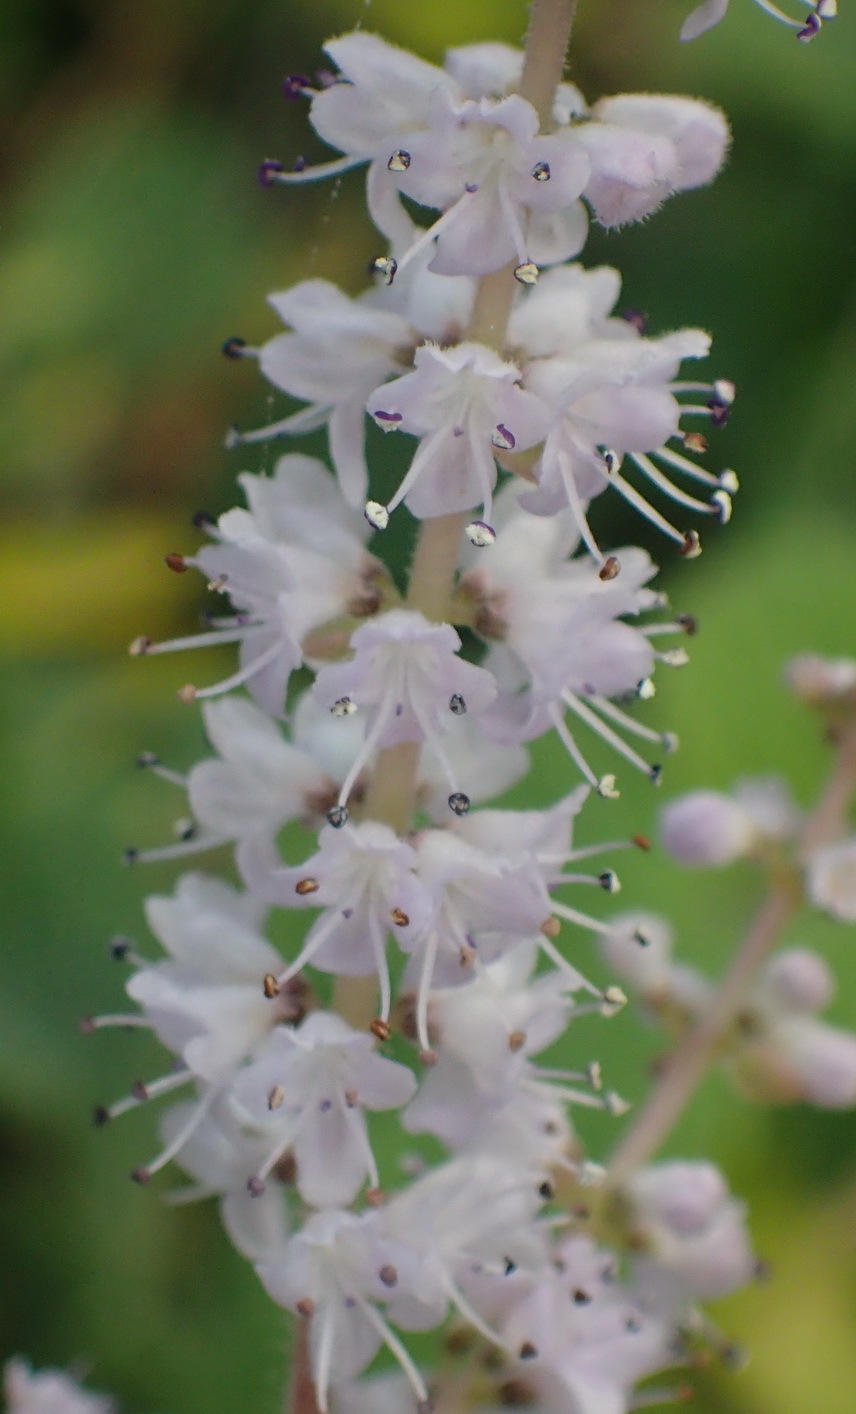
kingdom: Plantae
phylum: Tracheophyta
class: Magnoliopsida
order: Lamiales
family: Lamiaceae
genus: Tetradenia
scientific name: Tetradenia riparia
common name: Gingerbush
